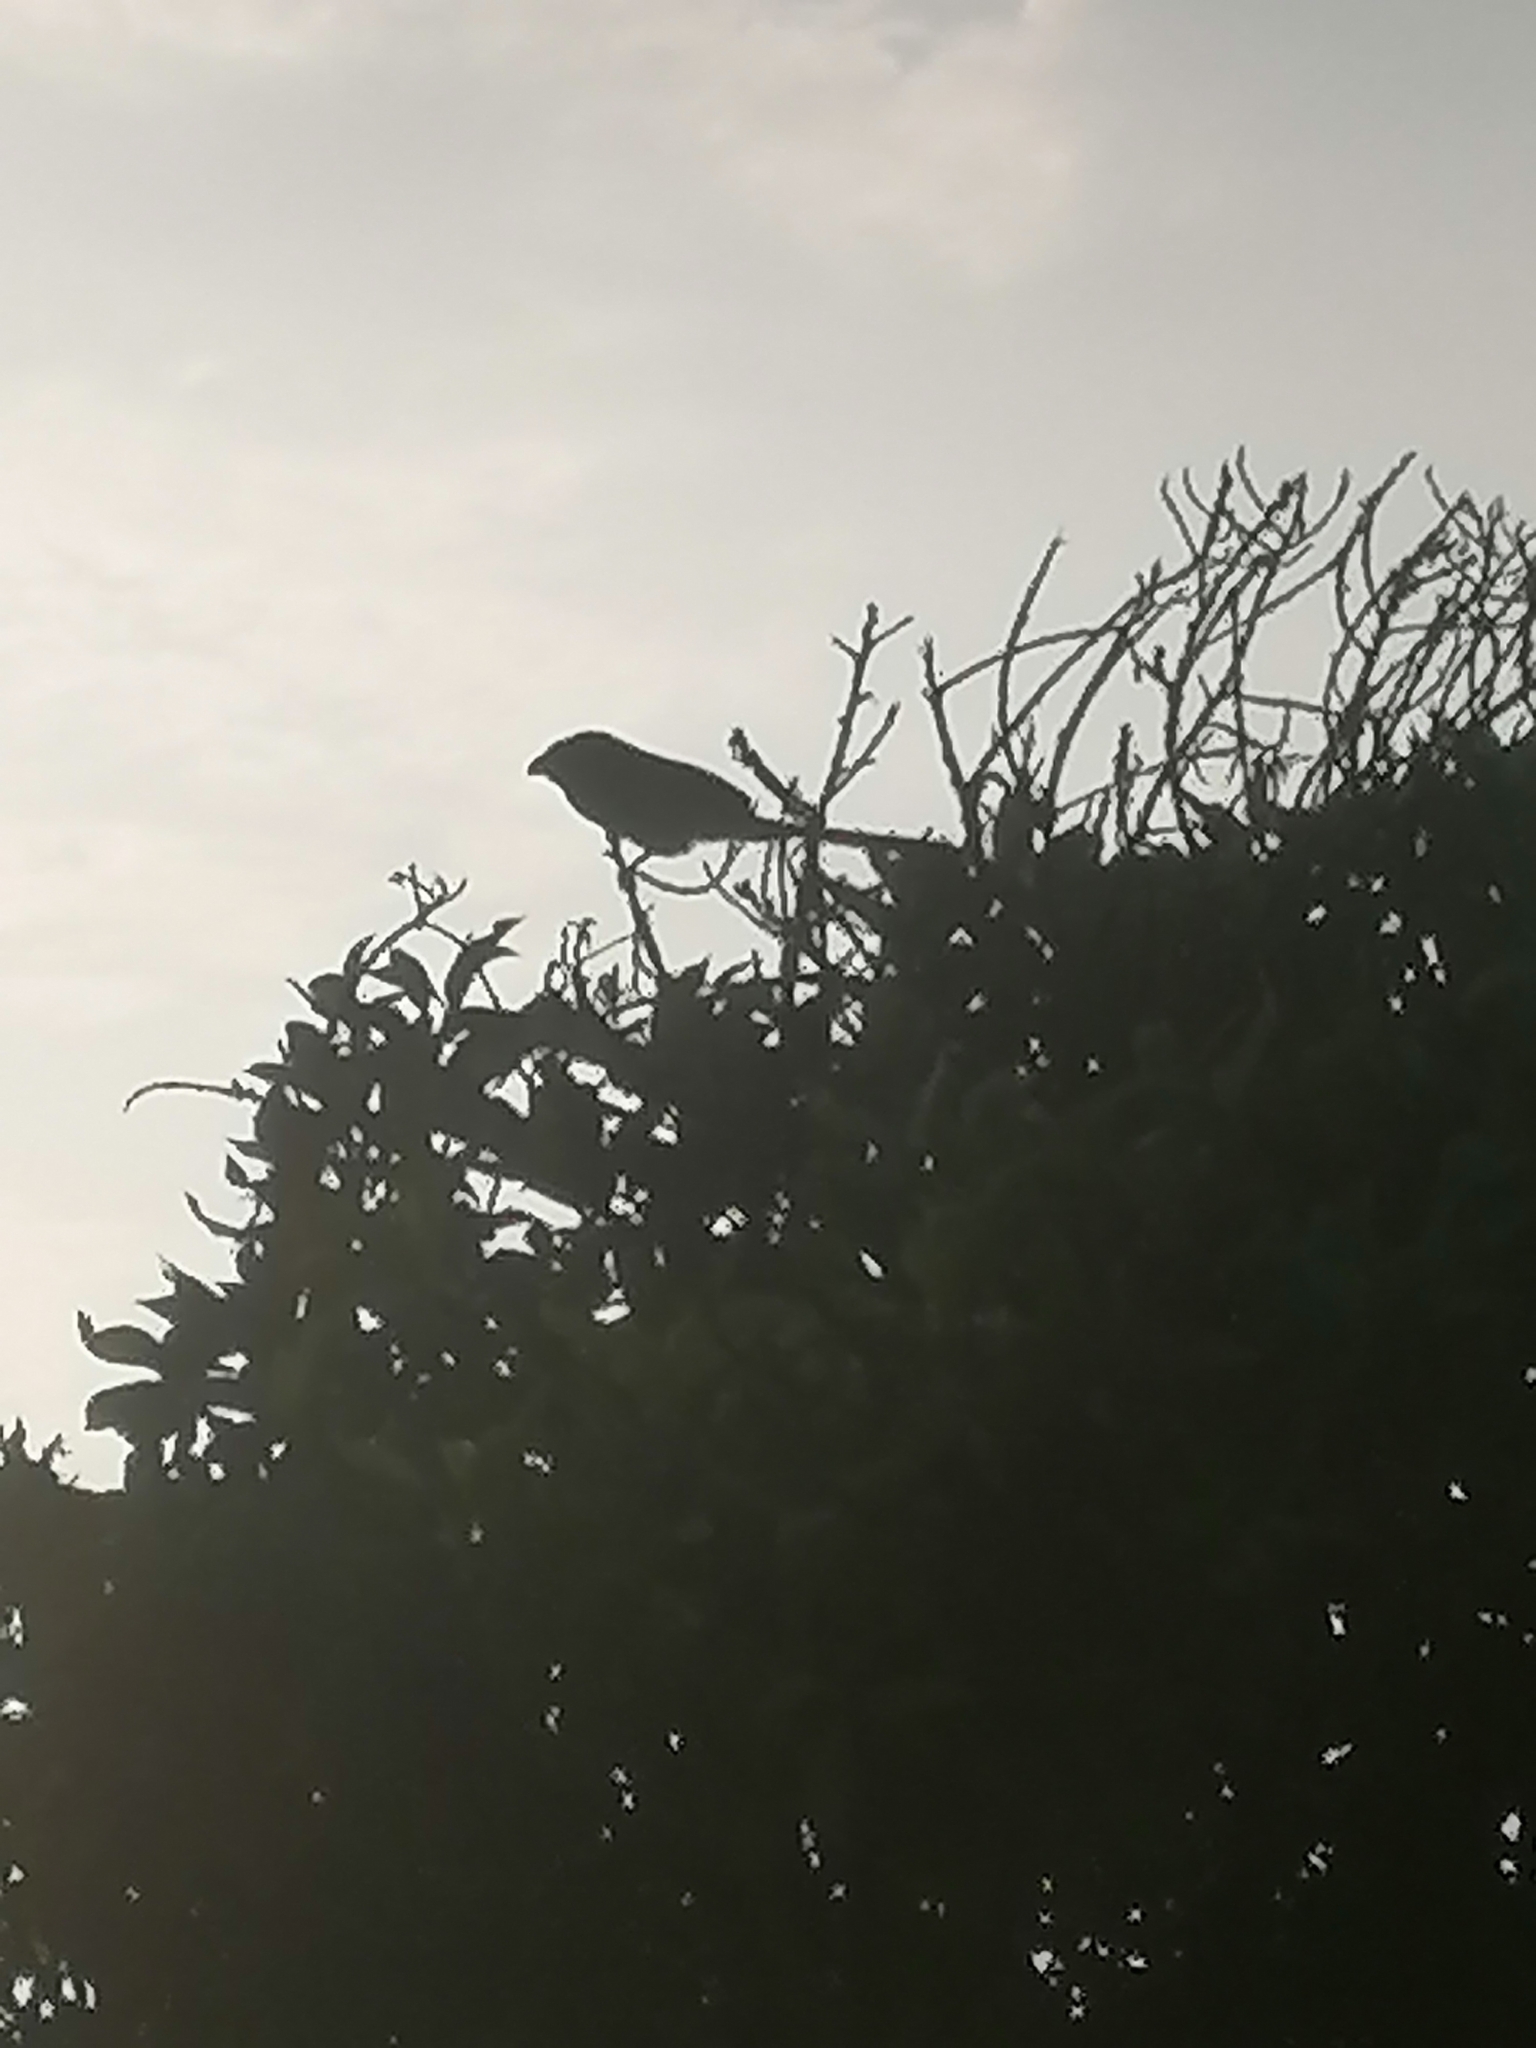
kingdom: Animalia
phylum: Chordata
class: Aves
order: Cuculiformes
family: Cuculidae
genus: Crotophaga
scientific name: Crotophaga sulcirostris
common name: Groove-billed ani
